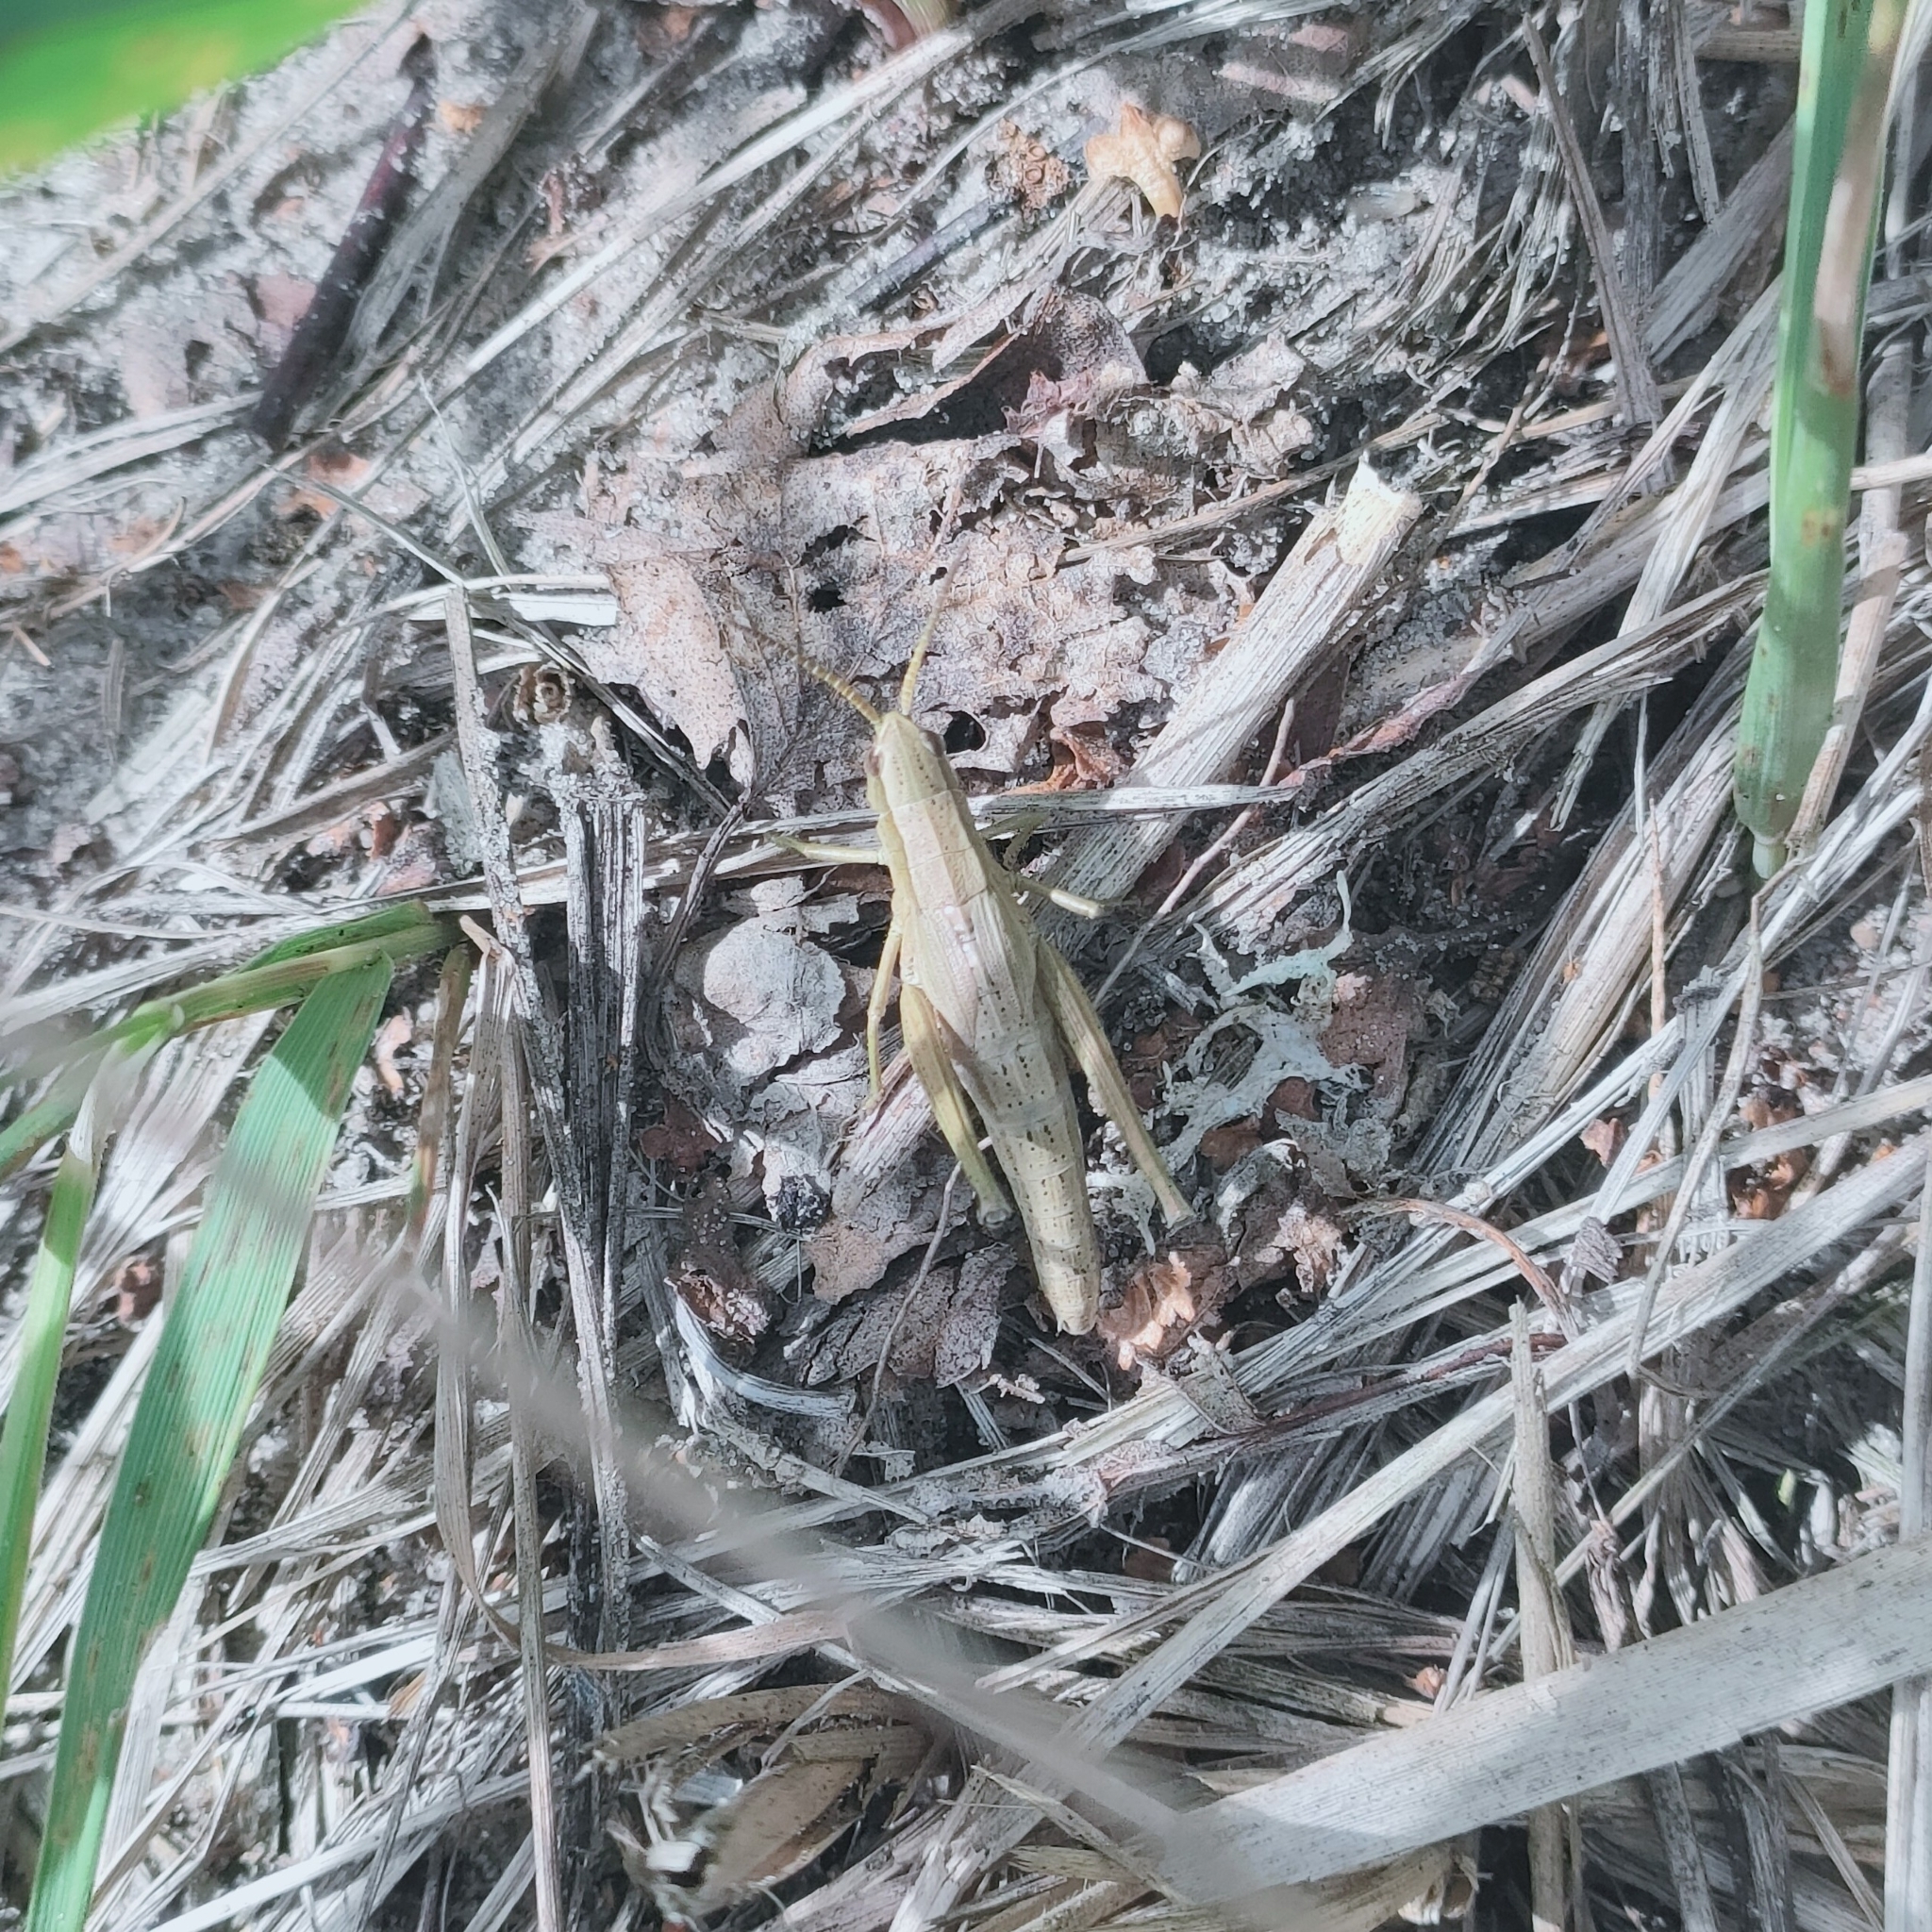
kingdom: Animalia
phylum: Arthropoda
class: Insecta
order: Orthoptera
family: Acrididae
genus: Chrysochraon
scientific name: Chrysochraon dispar
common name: Large gold grasshopper
